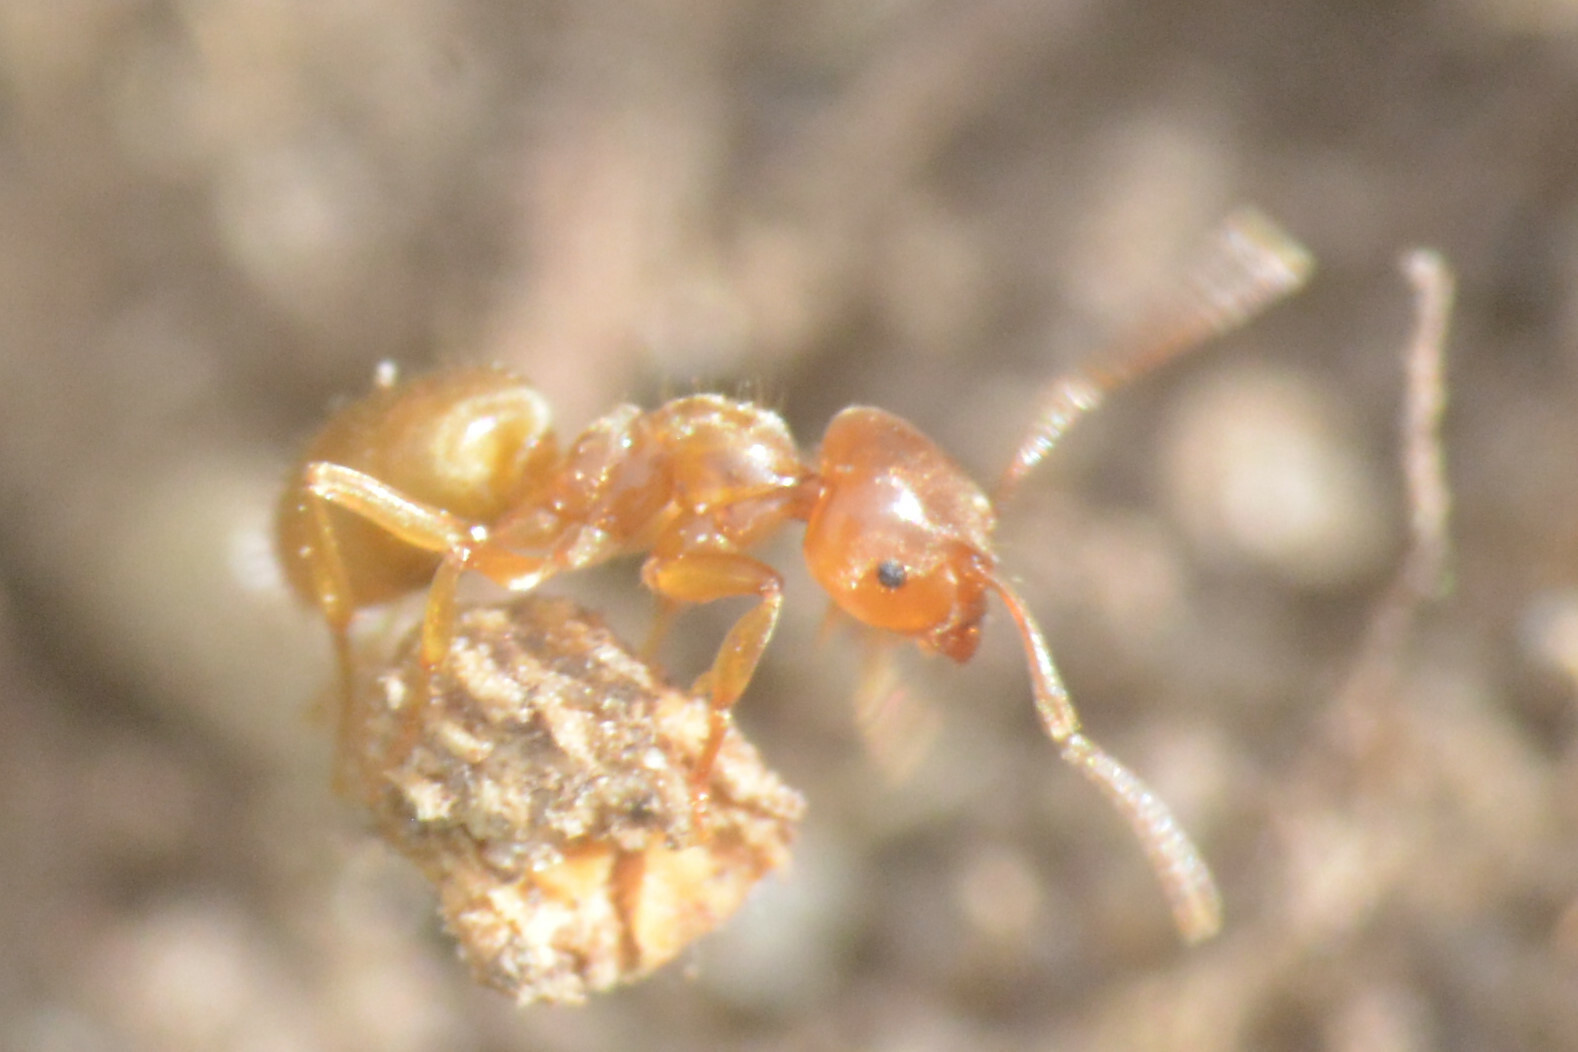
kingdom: Animalia
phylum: Arthropoda
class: Insecta
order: Hymenoptera
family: Formicidae
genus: Lasius
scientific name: Lasius flavus
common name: Blond field ant
